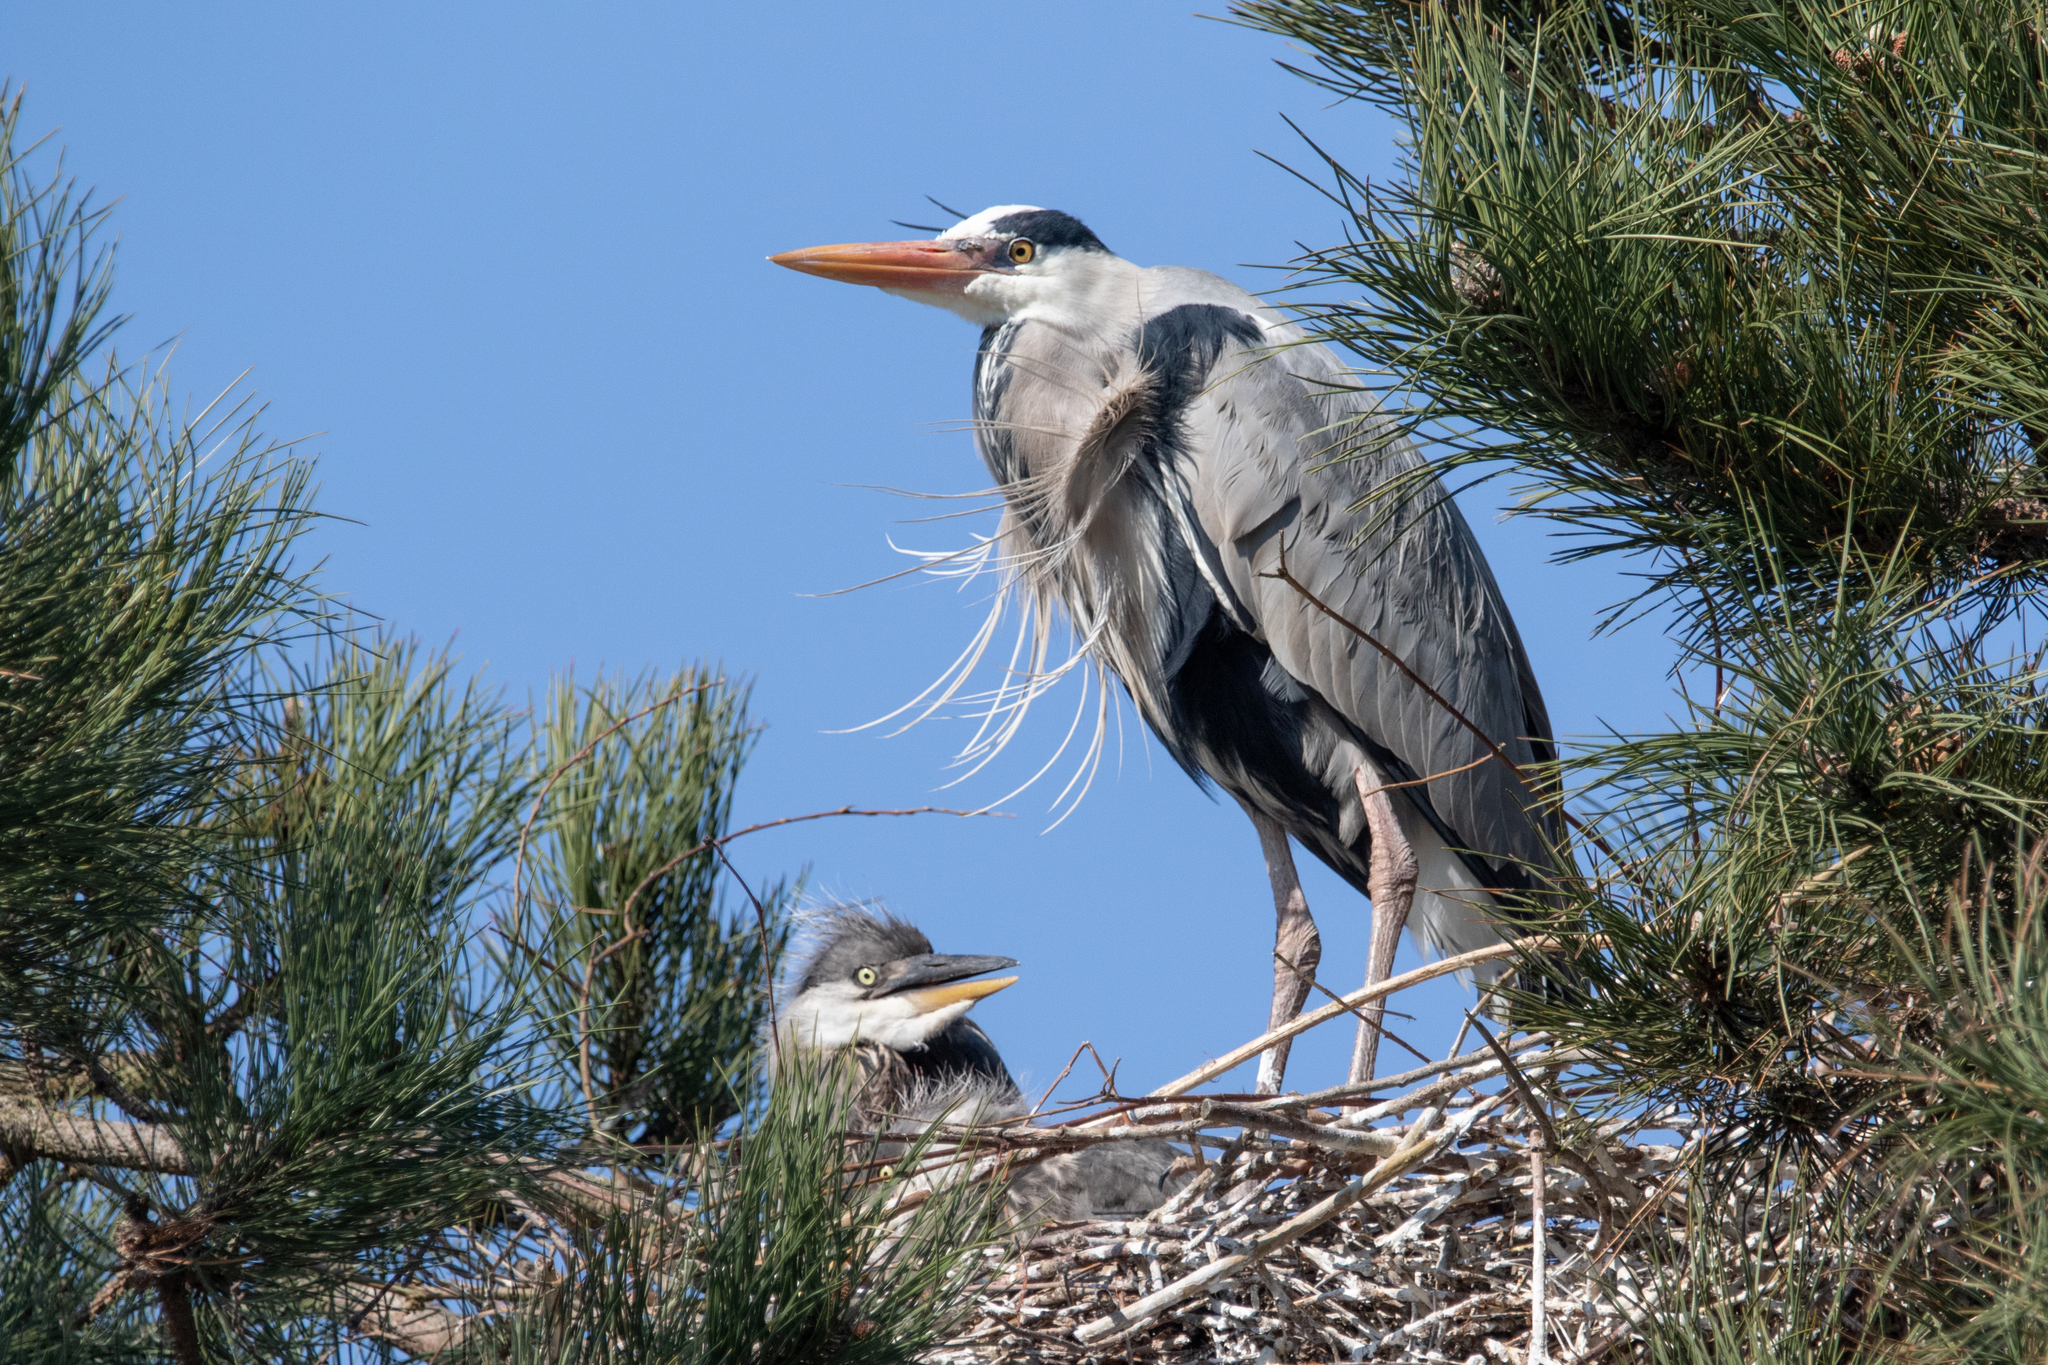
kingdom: Animalia
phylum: Chordata
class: Aves
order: Pelecaniformes
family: Ardeidae
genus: Ardea
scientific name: Ardea cinerea
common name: Grey heron
